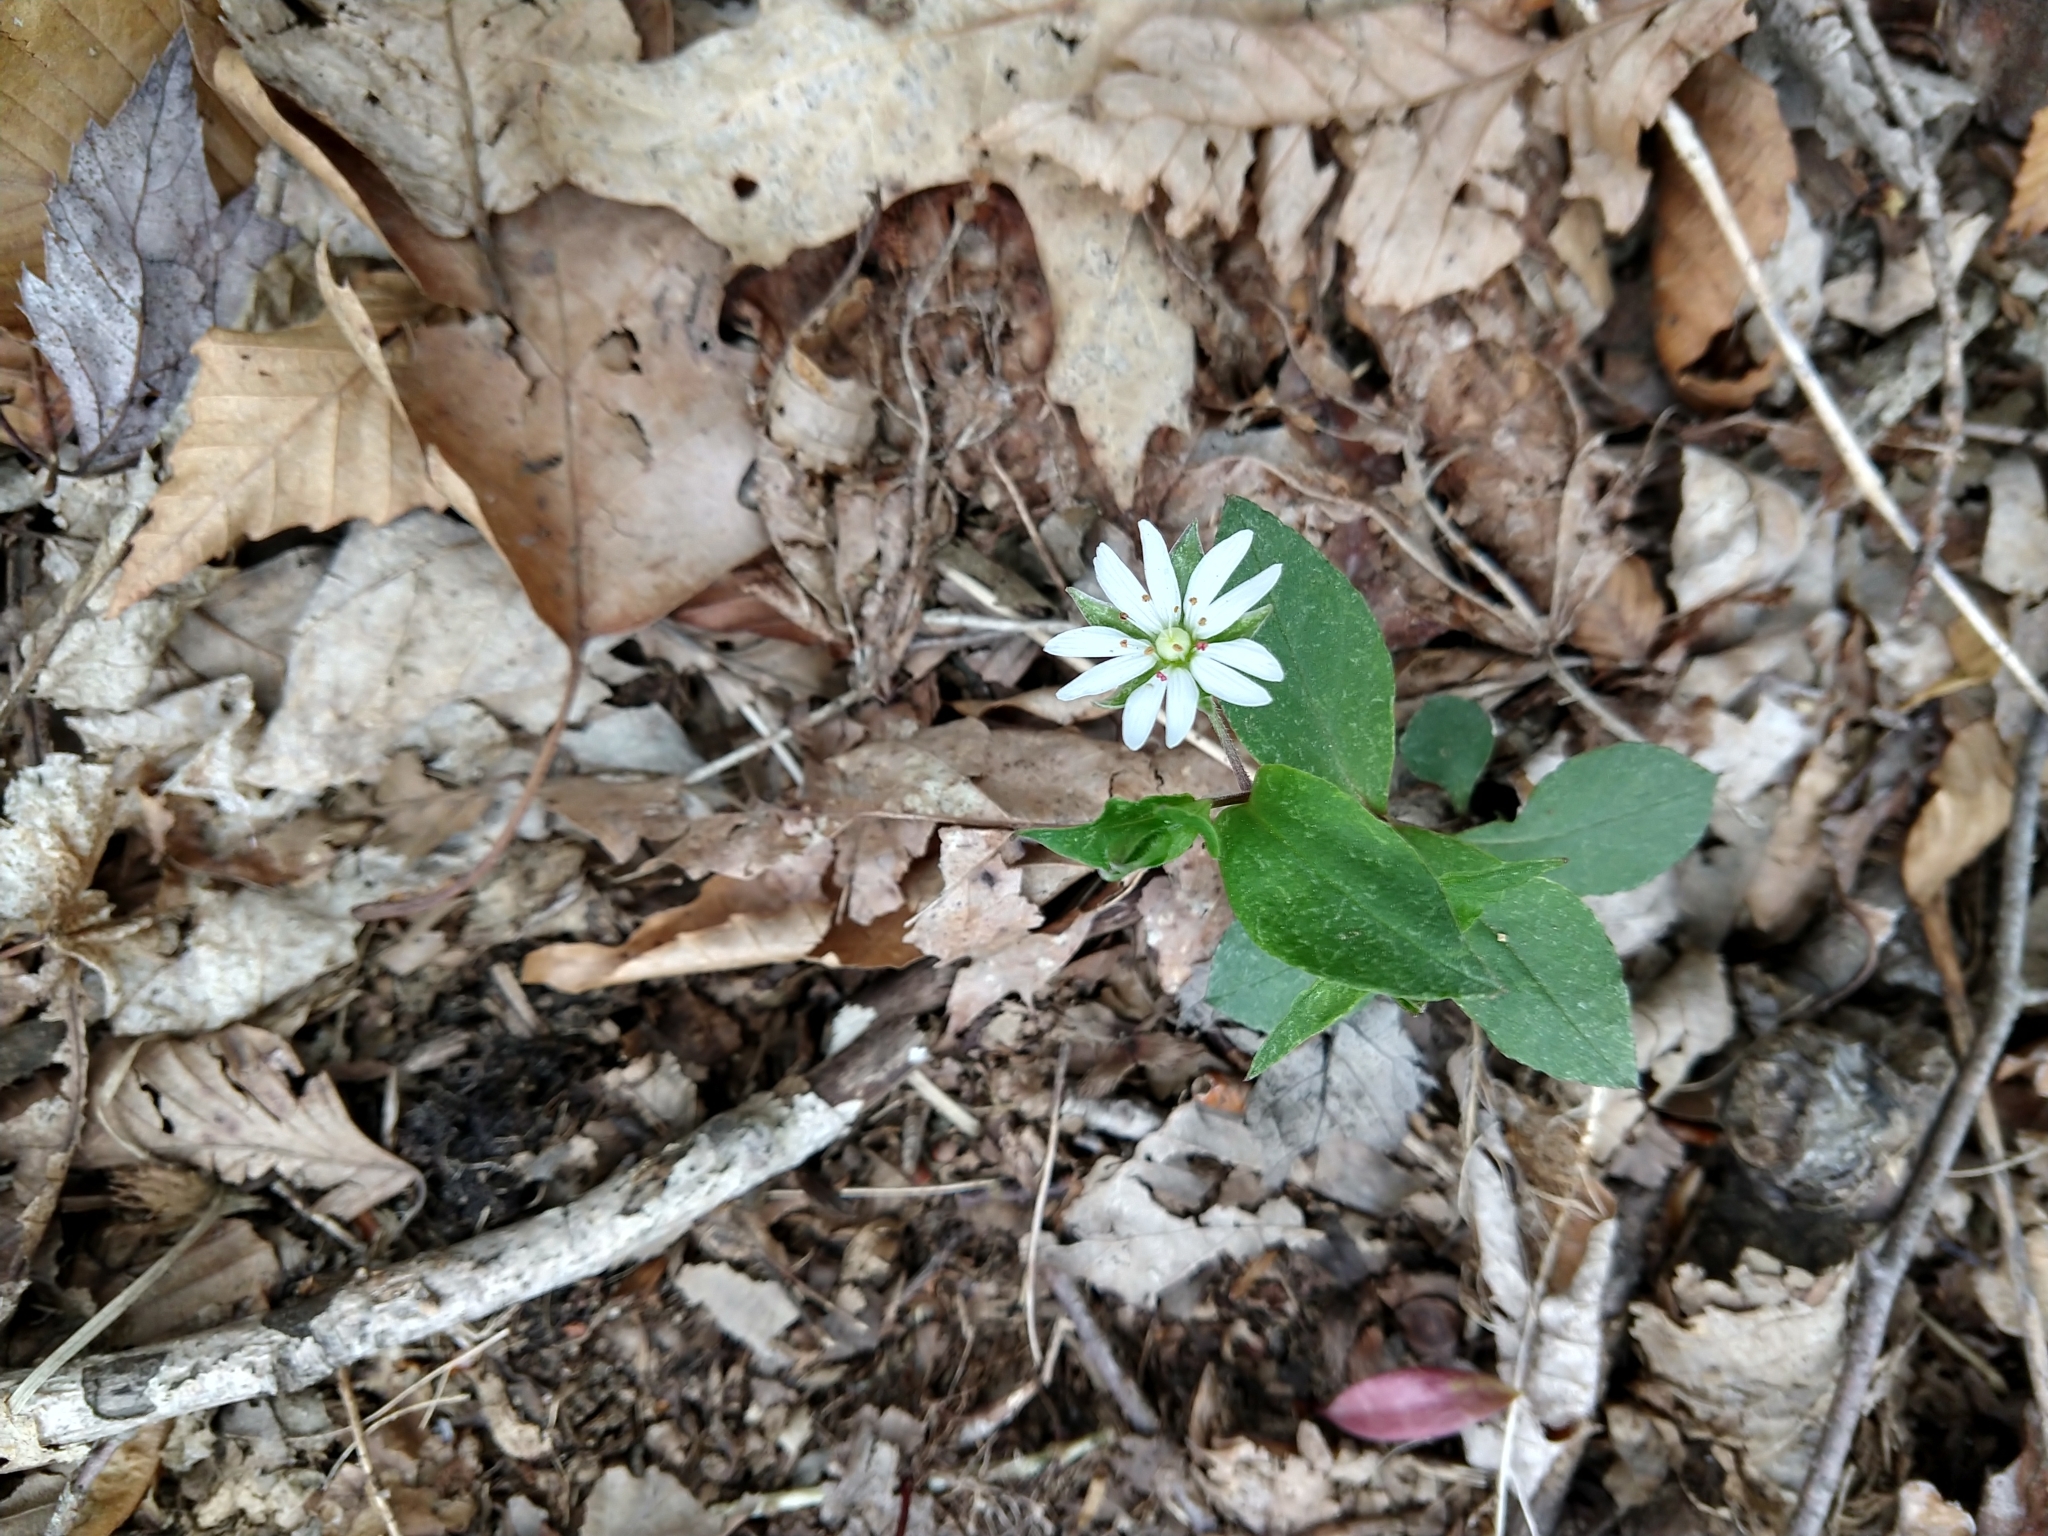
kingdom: Plantae
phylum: Tracheophyta
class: Magnoliopsida
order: Caryophyllales
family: Caryophyllaceae
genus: Stellaria
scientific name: Stellaria pubera
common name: Star chickweed
